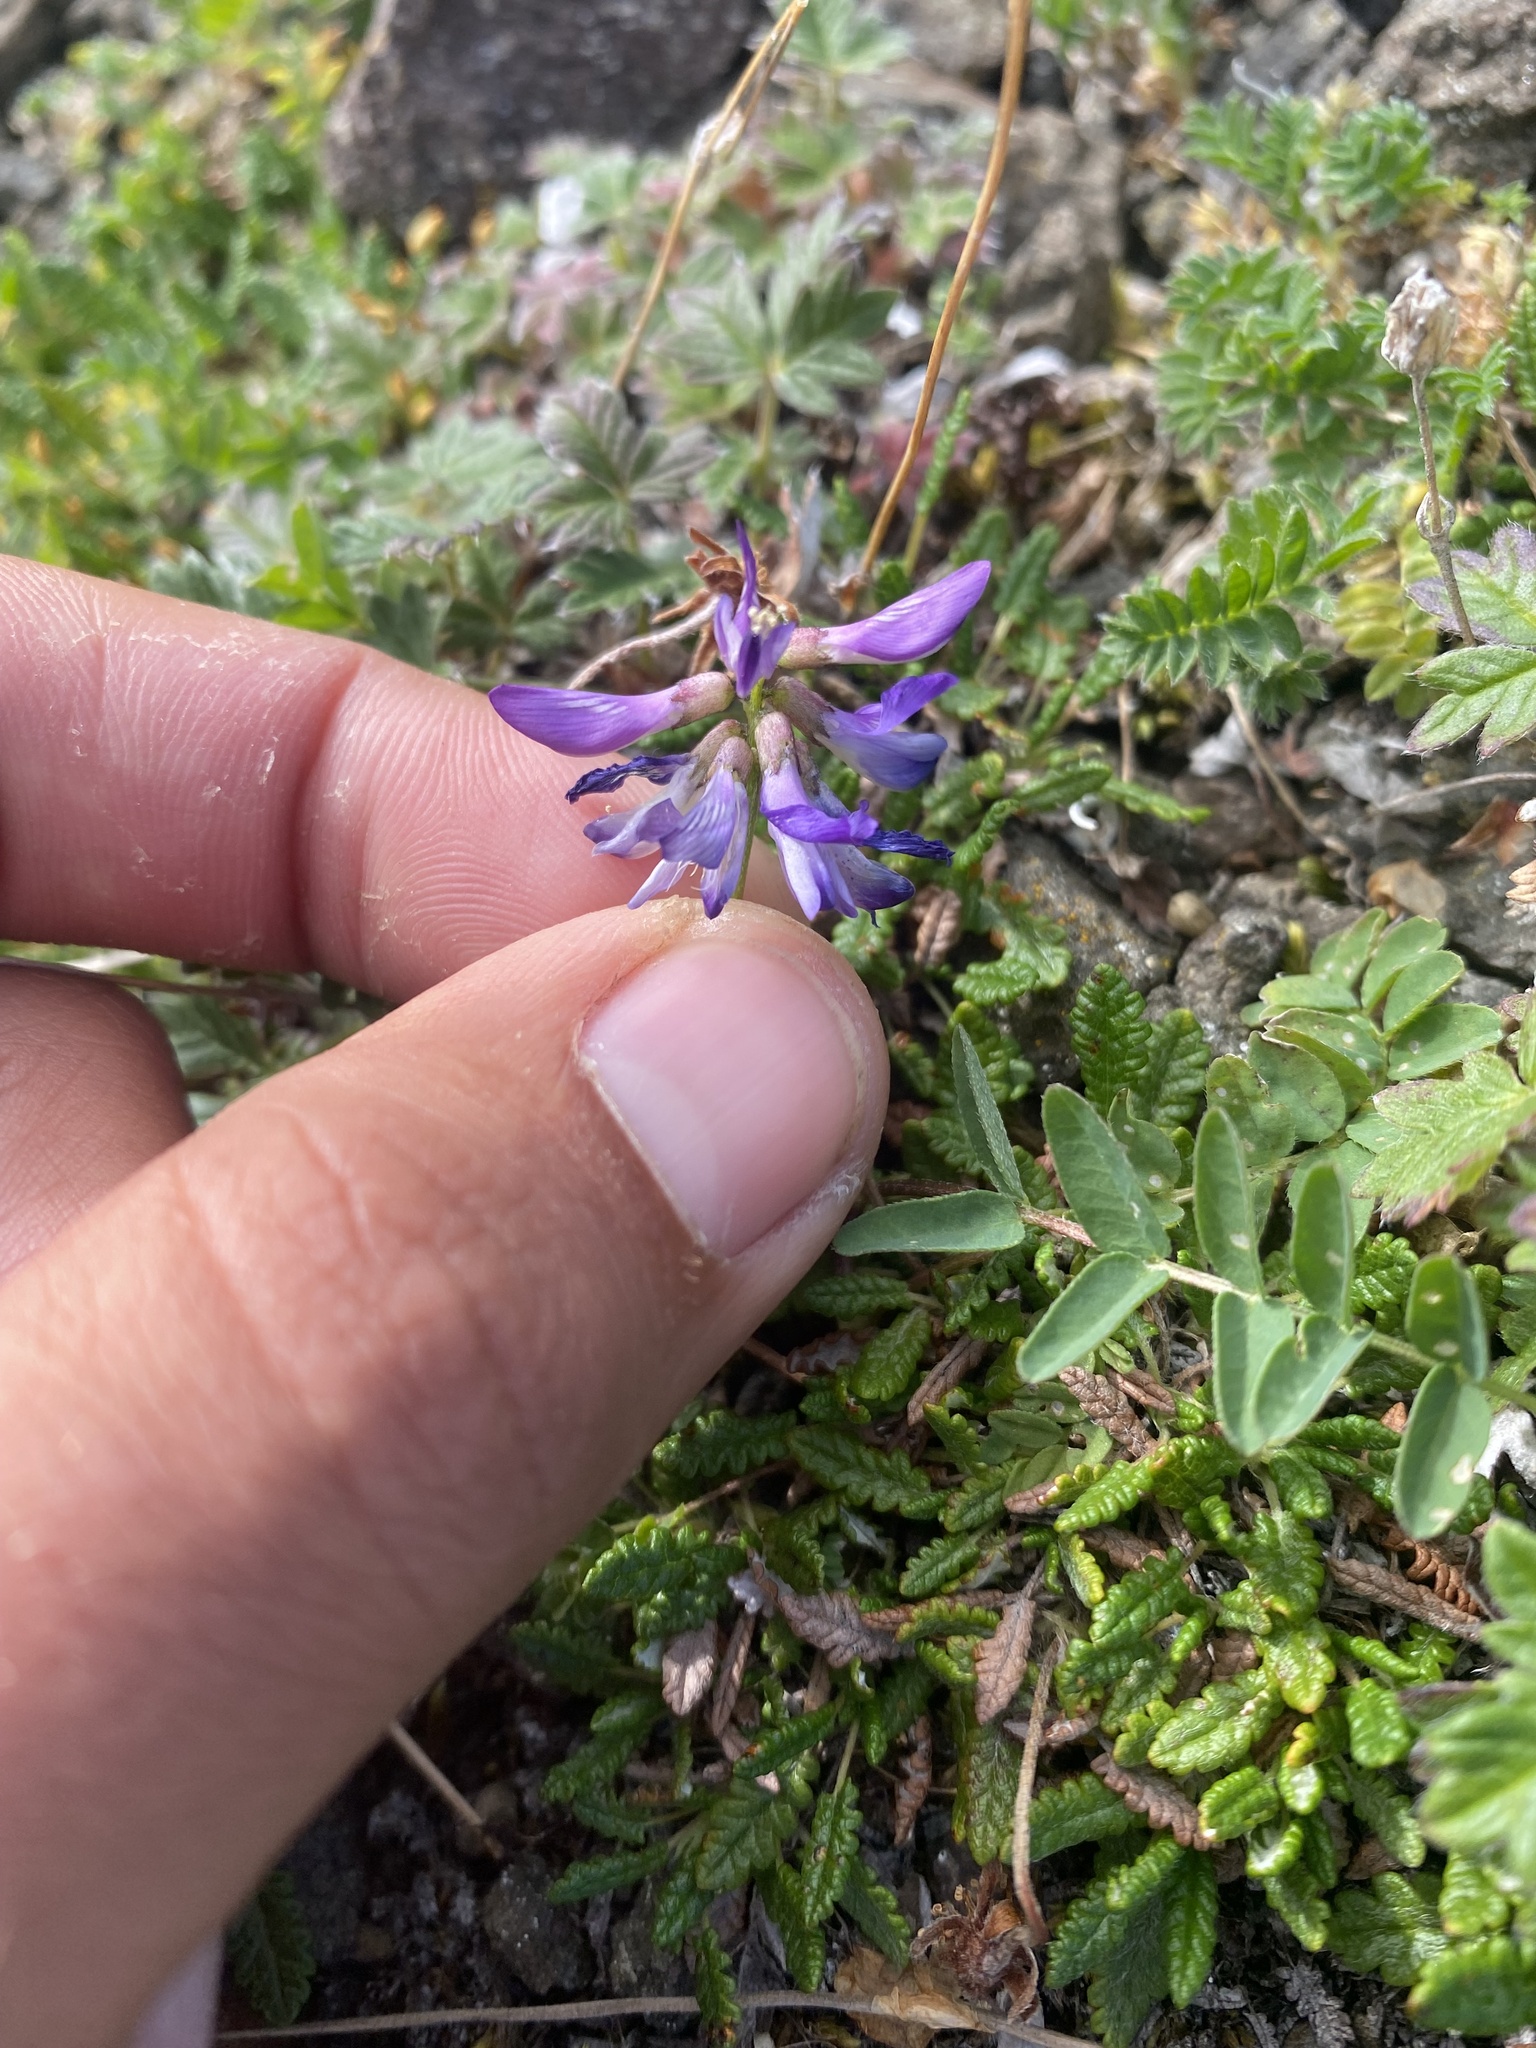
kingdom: Plantae
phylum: Tracheophyta
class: Magnoliopsida
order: Fabales
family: Fabaceae
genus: Astragalus
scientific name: Astragalus alpinus
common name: Alpine milk-vetch
